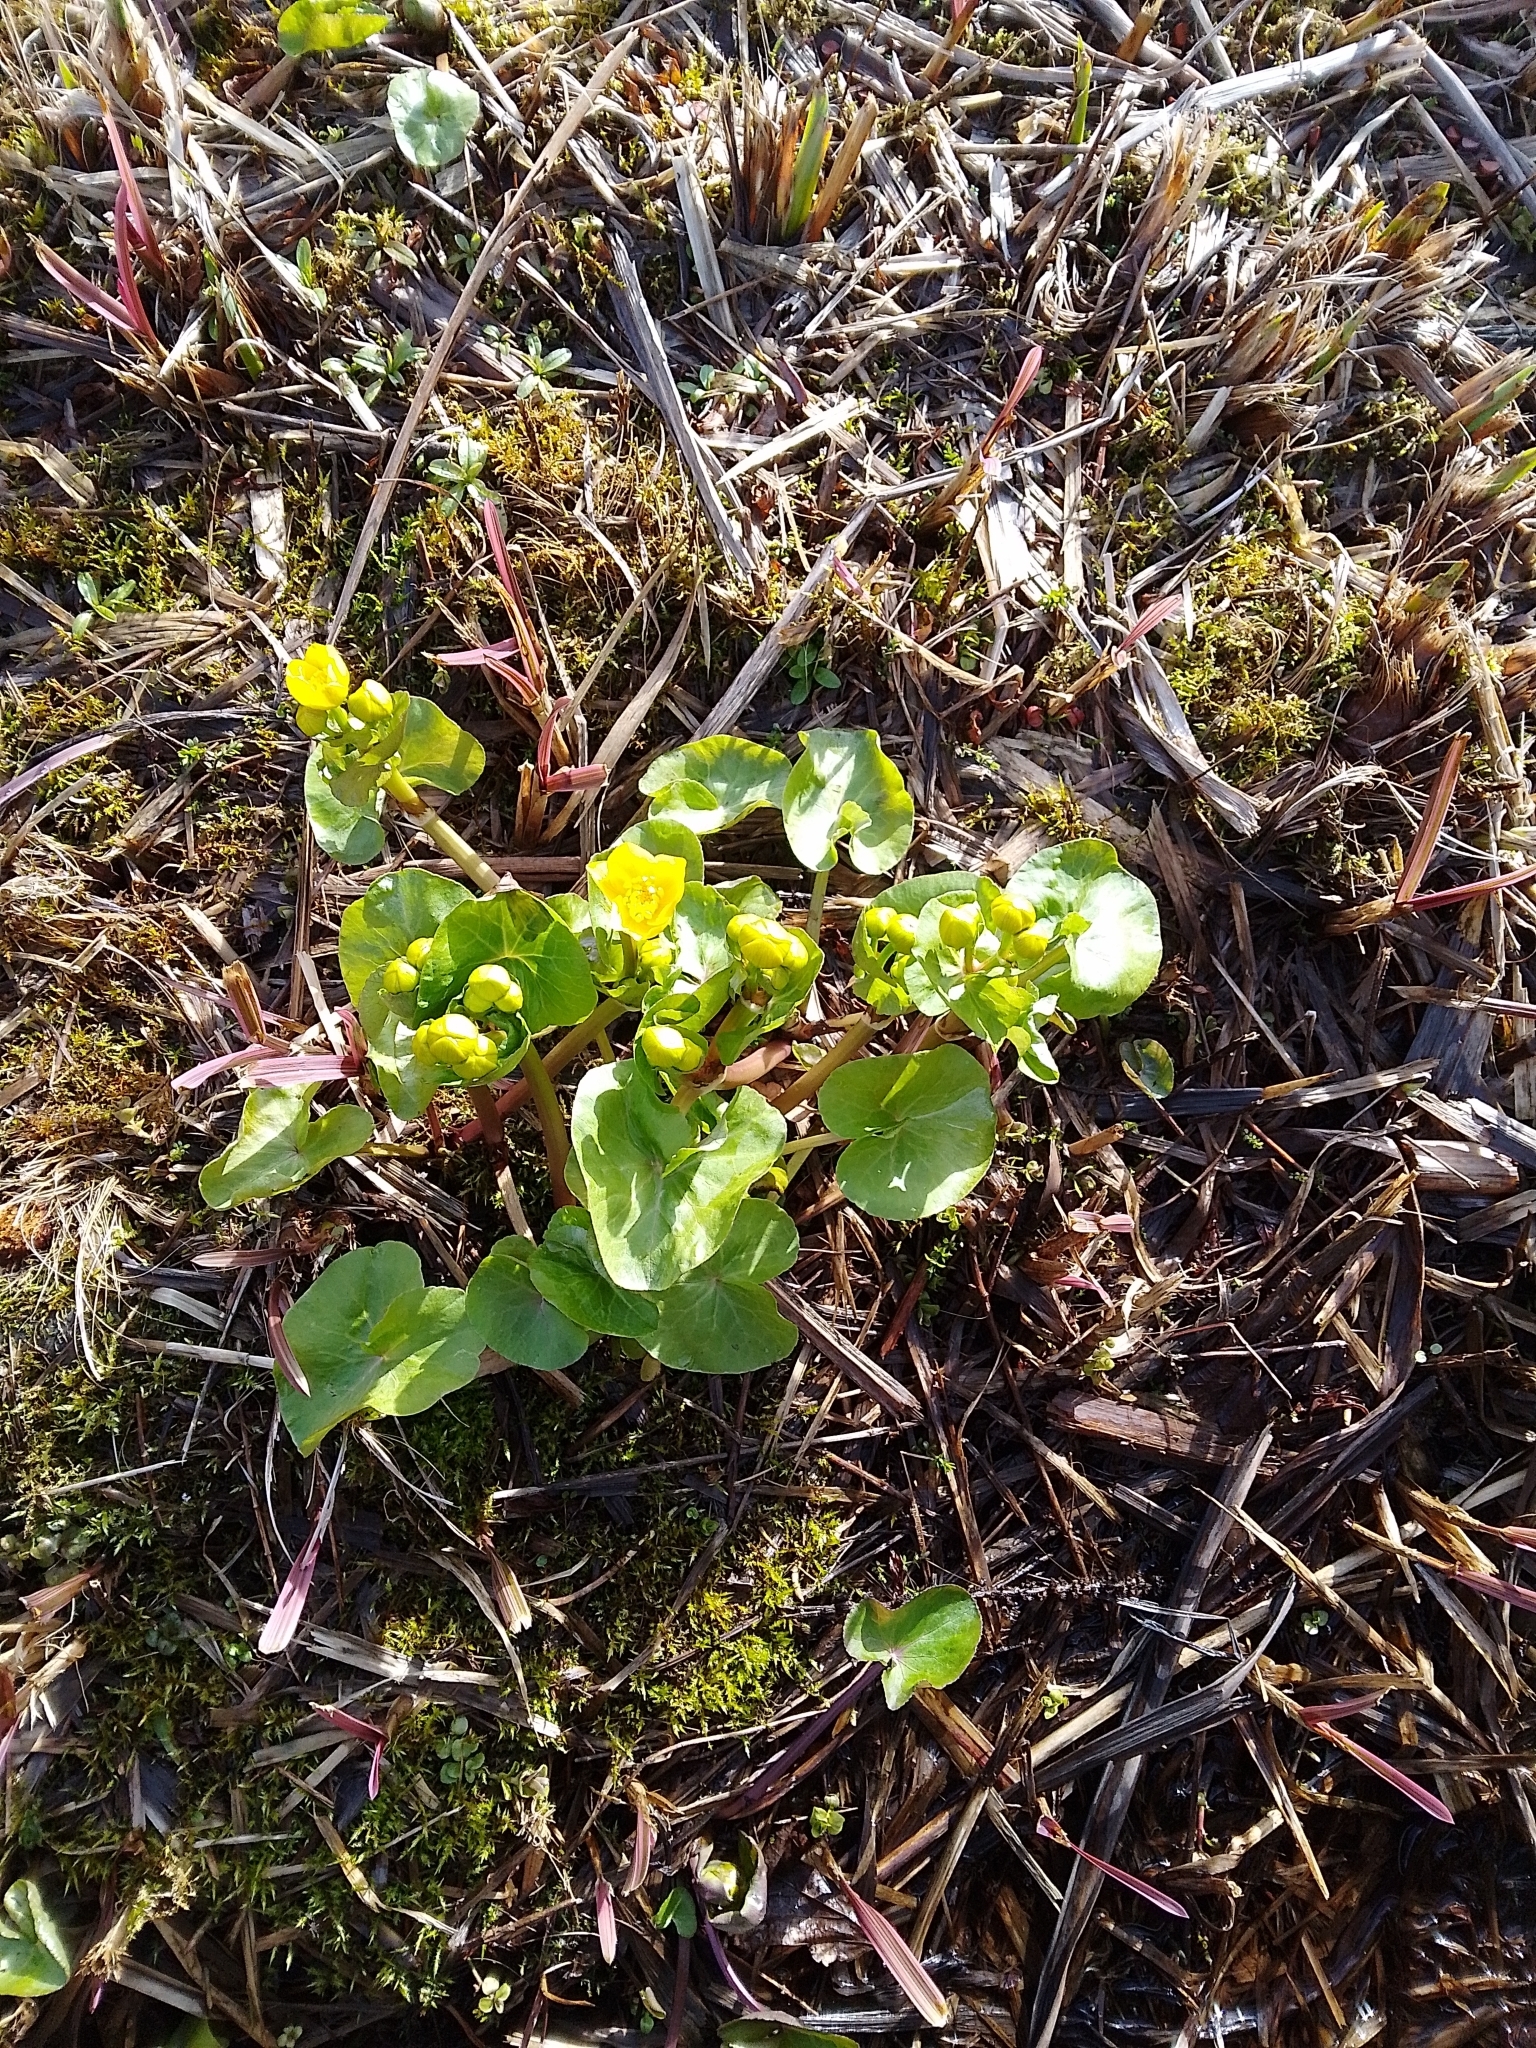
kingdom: Plantae
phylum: Tracheophyta
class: Magnoliopsida
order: Ranunculales
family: Ranunculaceae
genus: Caltha
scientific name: Caltha palustris
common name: Marsh marigold
